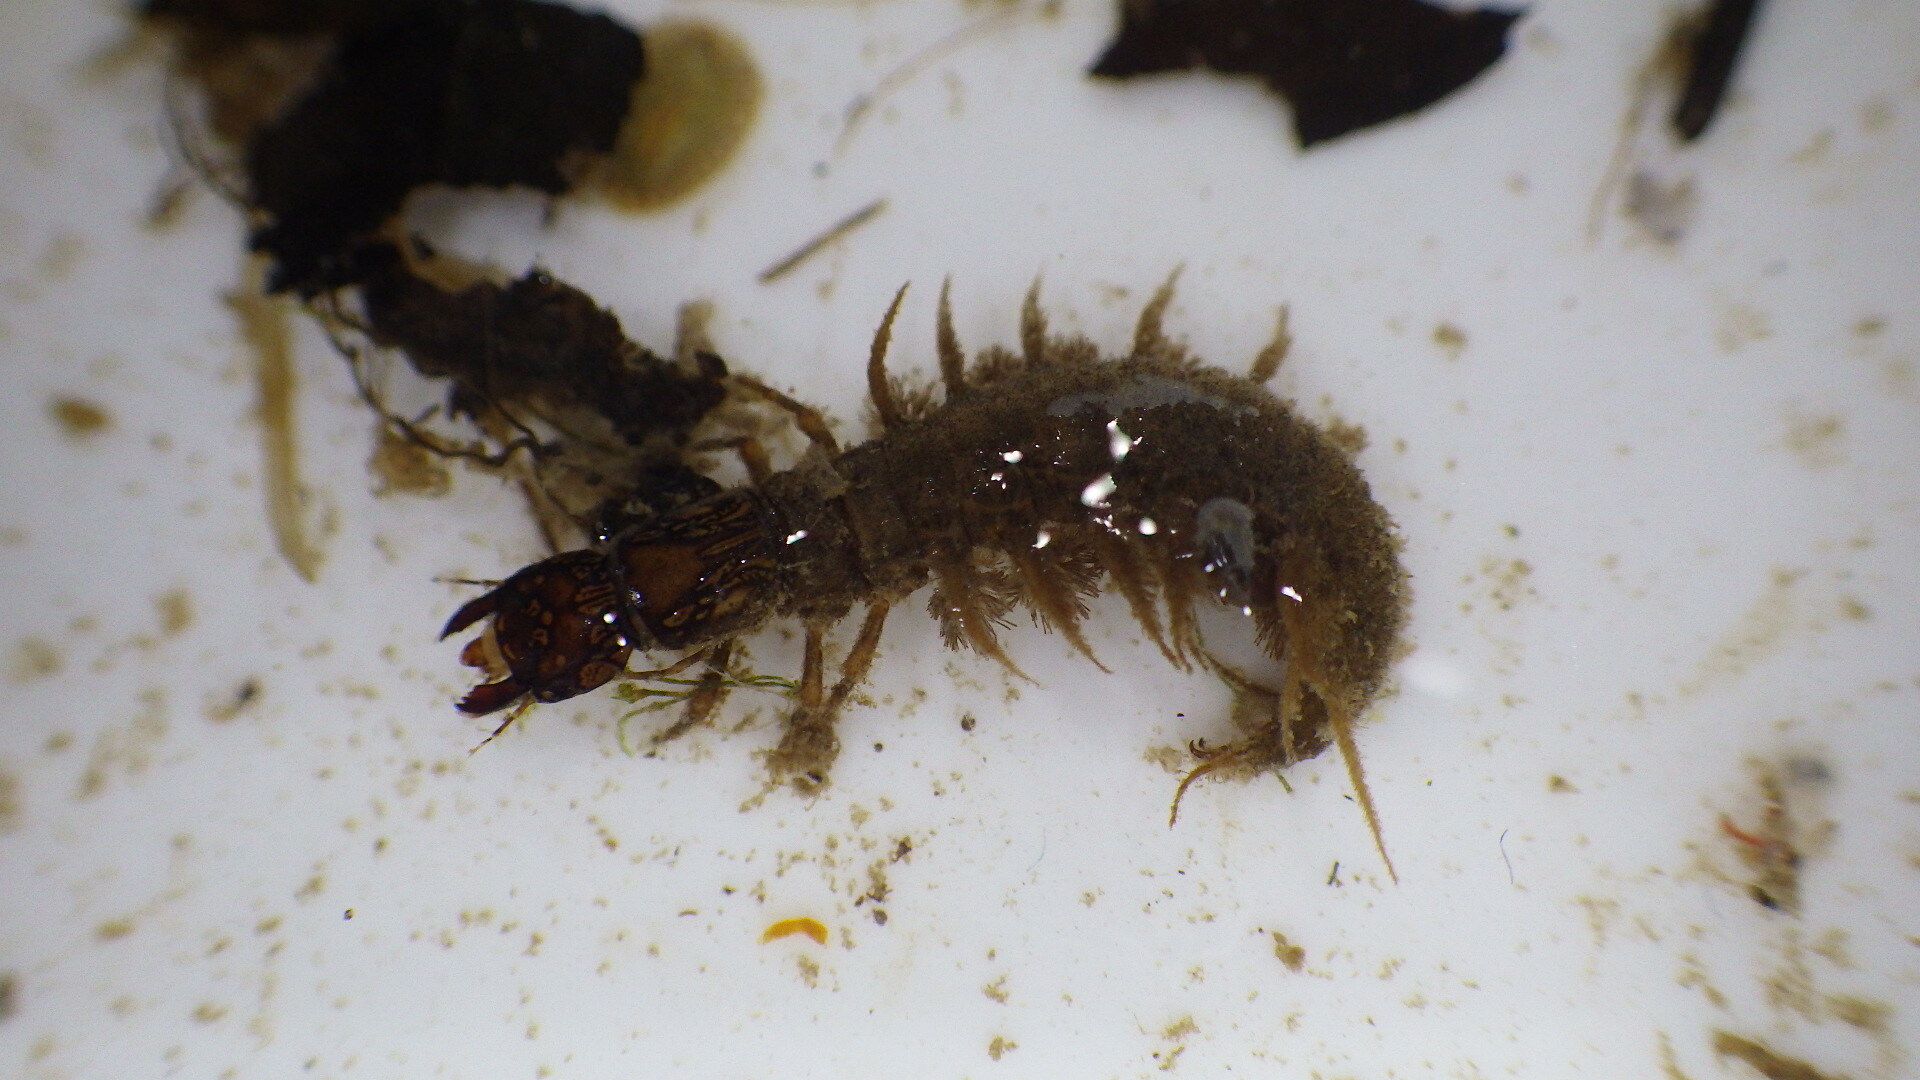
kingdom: Animalia
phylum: Arthropoda
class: Insecta
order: Megaloptera
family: Corydalidae
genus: Corydalus
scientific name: Corydalus cornutus
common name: Dobsonfly
